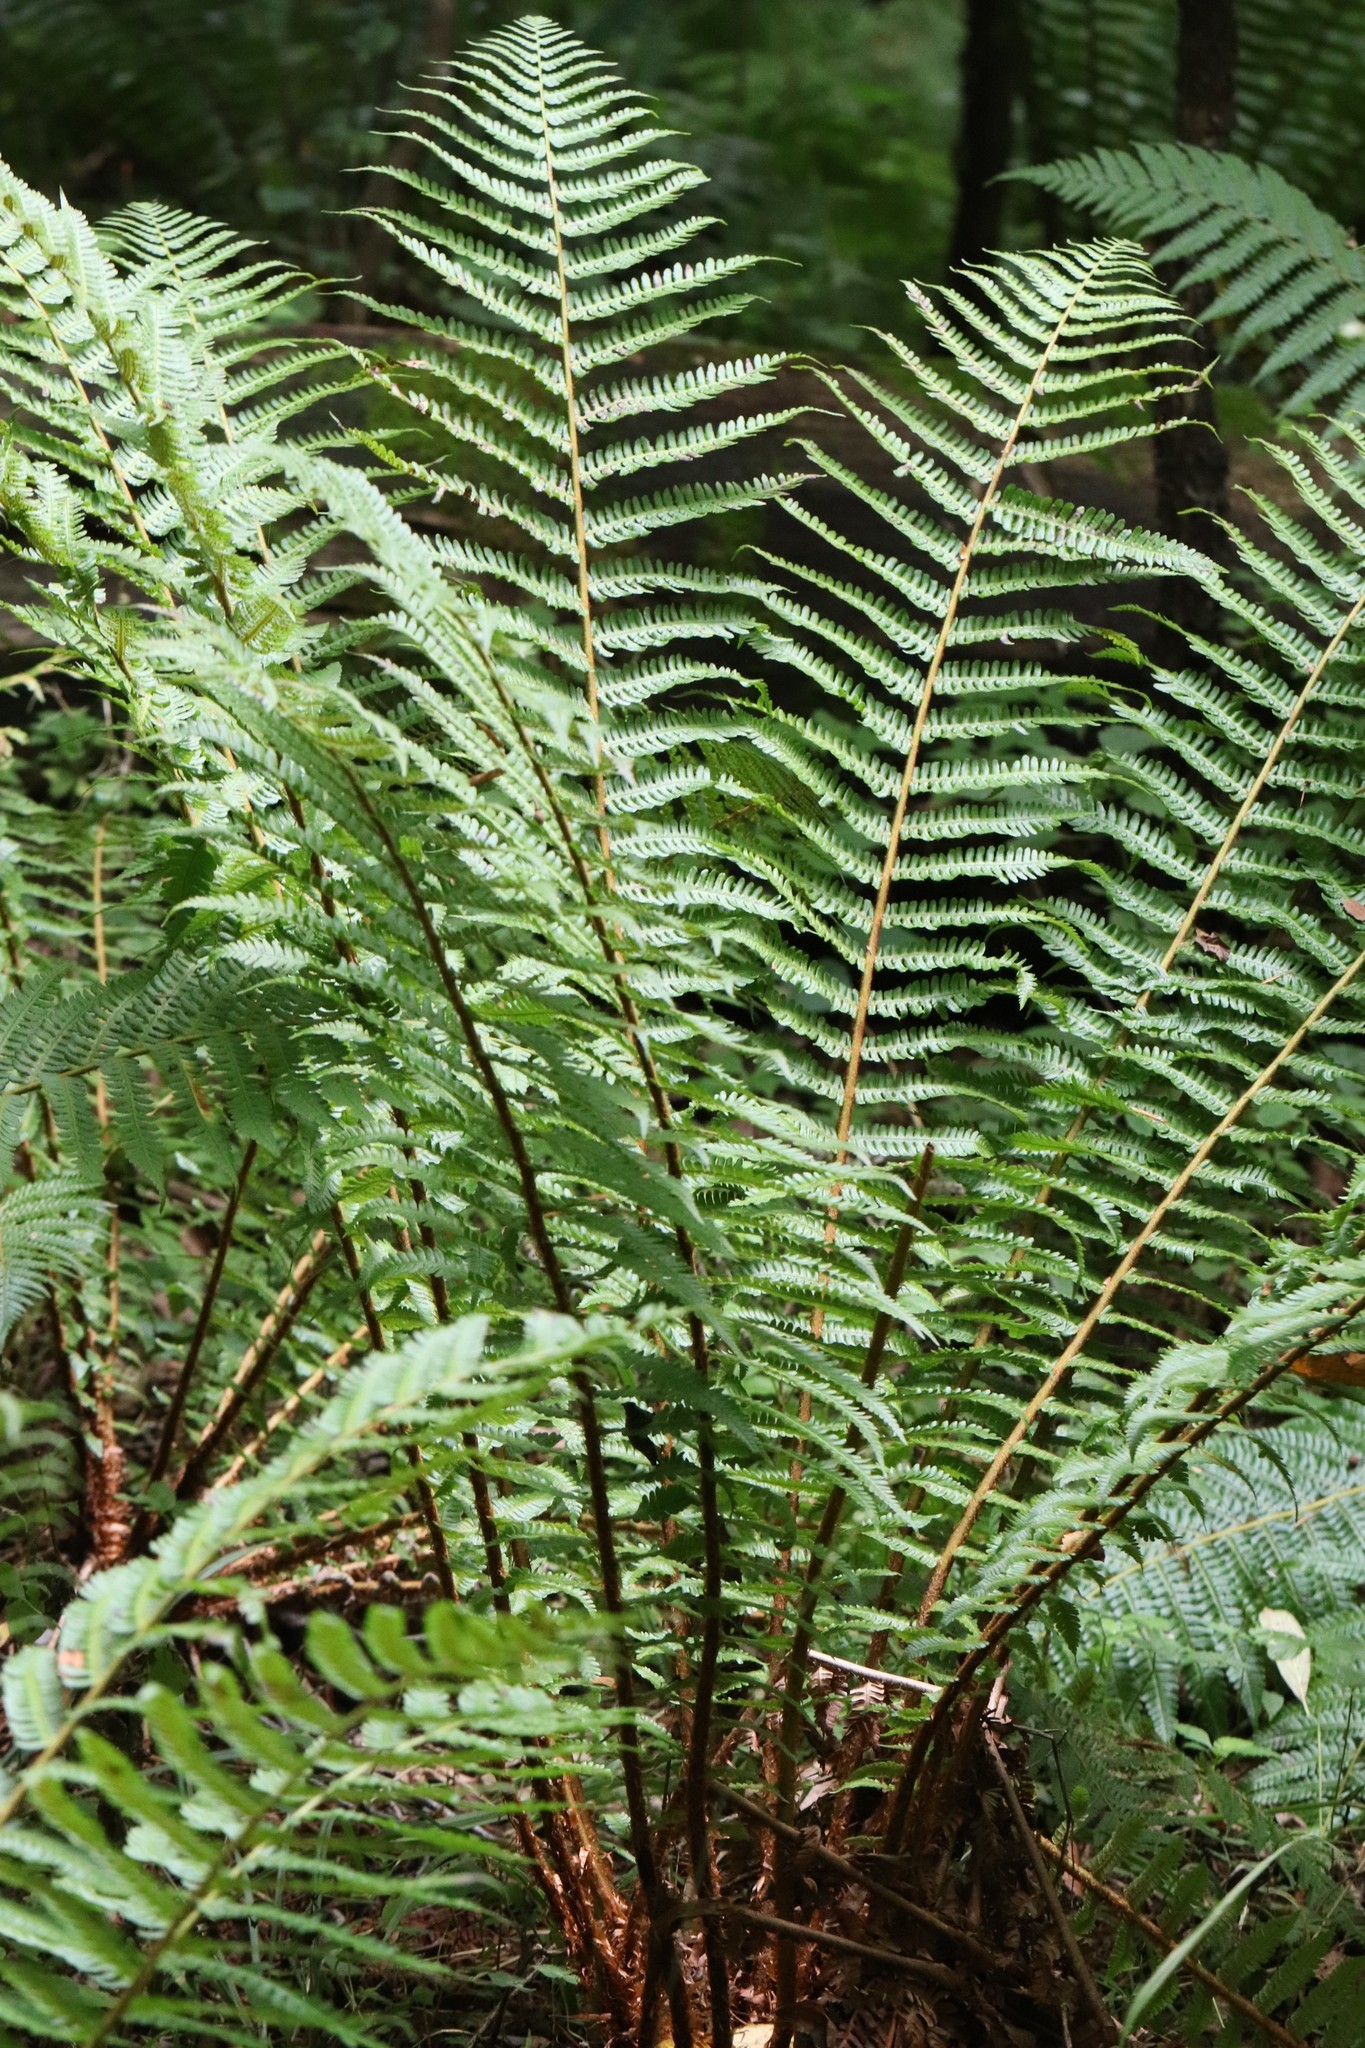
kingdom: Plantae
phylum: Tracheophyta
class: Polypodiopsida
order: Polypodiales
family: Dryopteridaceae
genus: Dryopteris
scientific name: Dryopteris crassirhizoma
